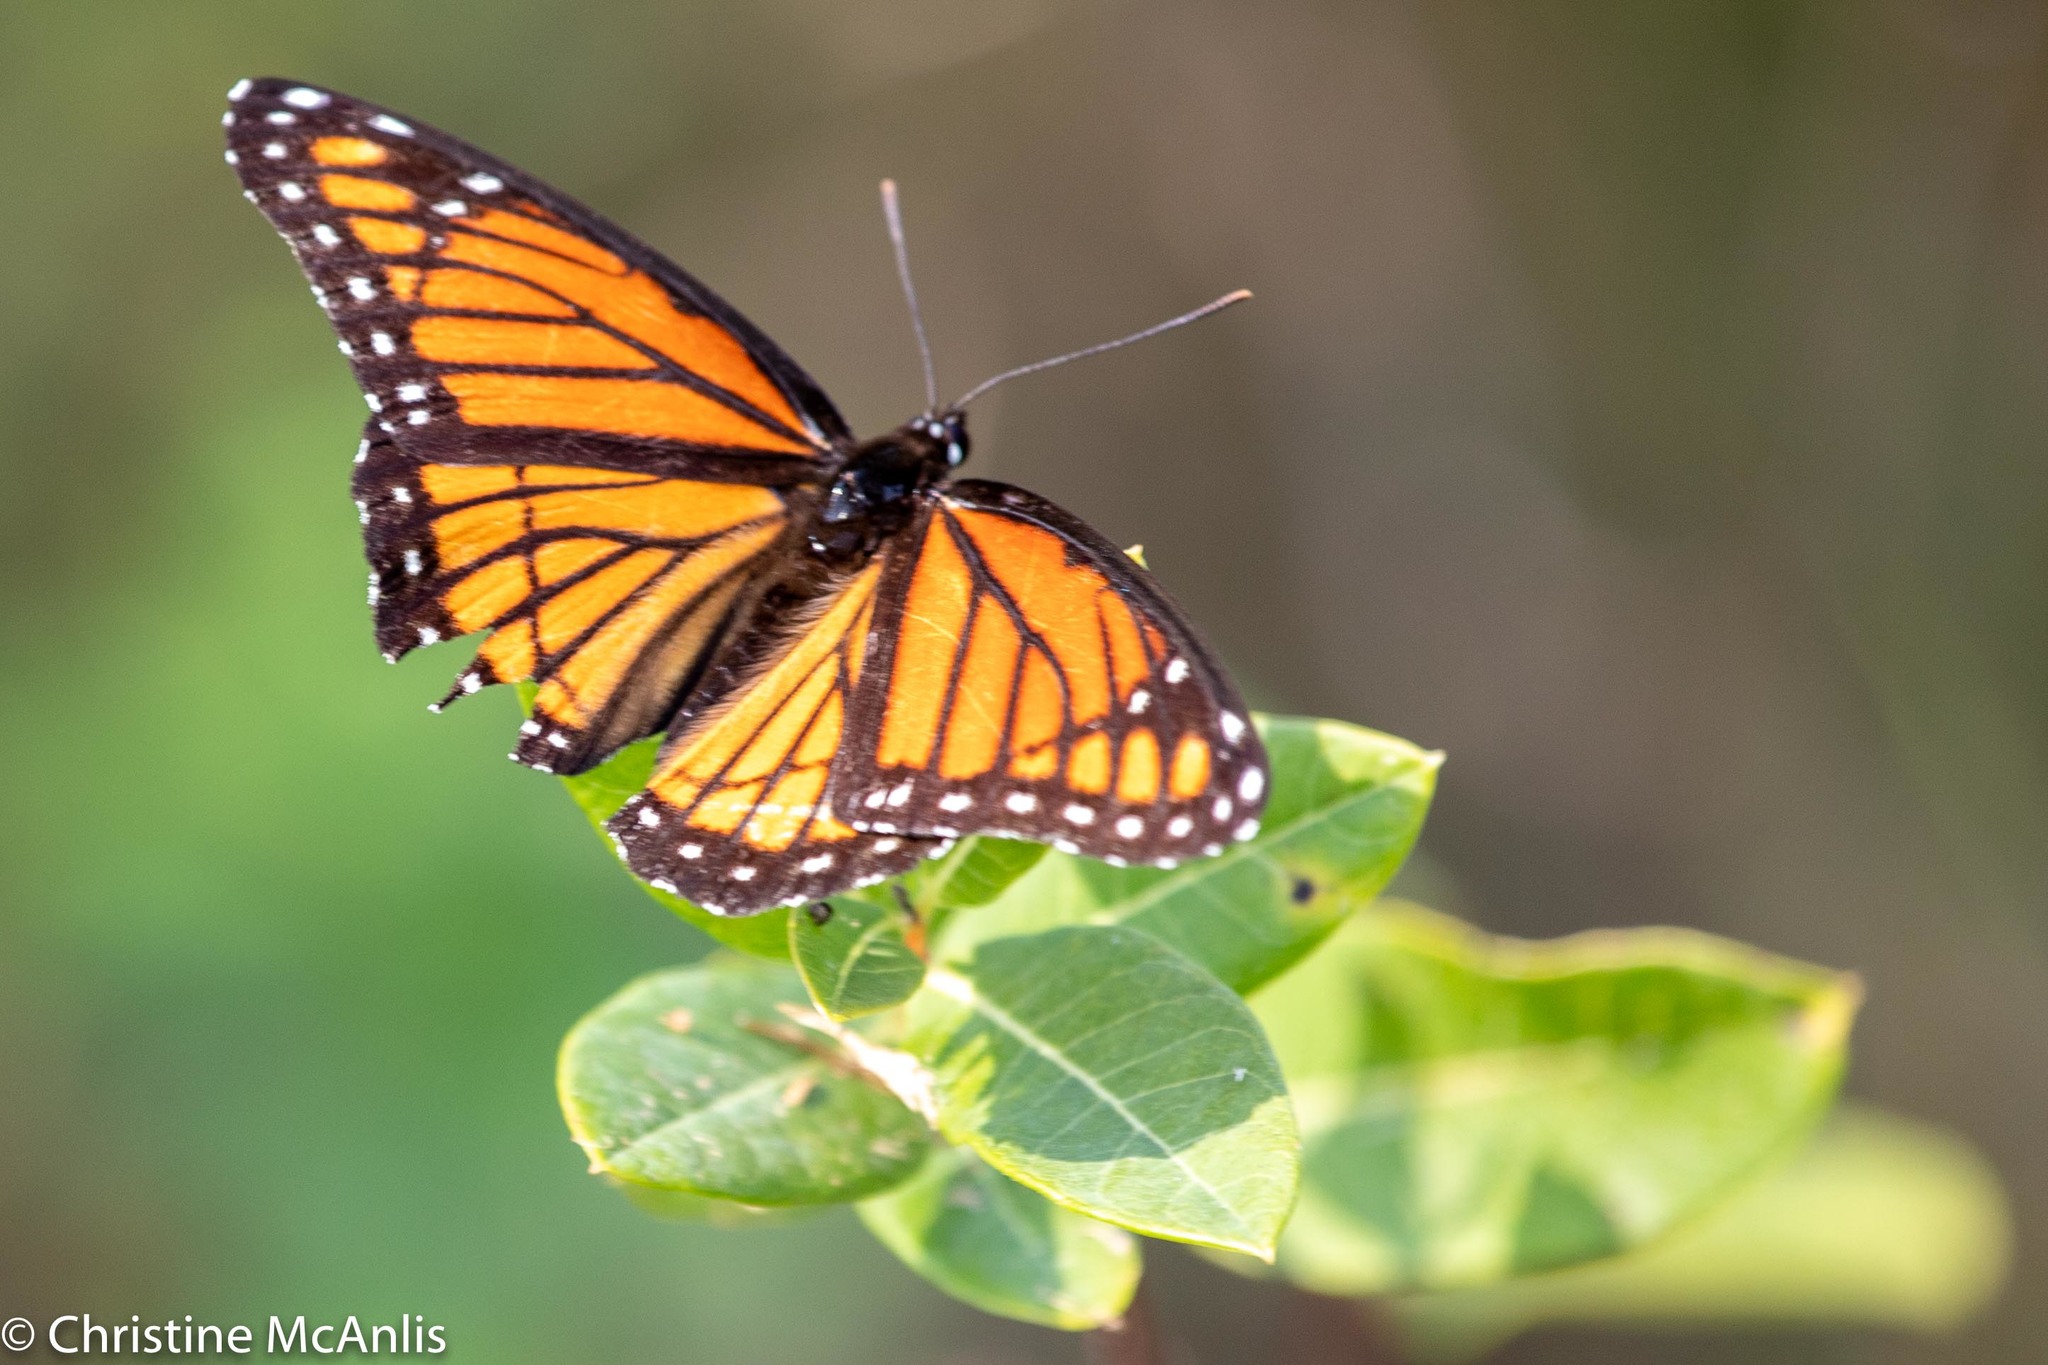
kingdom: Animalia
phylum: Arthropoda
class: Insecta
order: Lepidoptera
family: Nymphalidae
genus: Limenitis
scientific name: Limenitis archippus
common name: Viceroy
